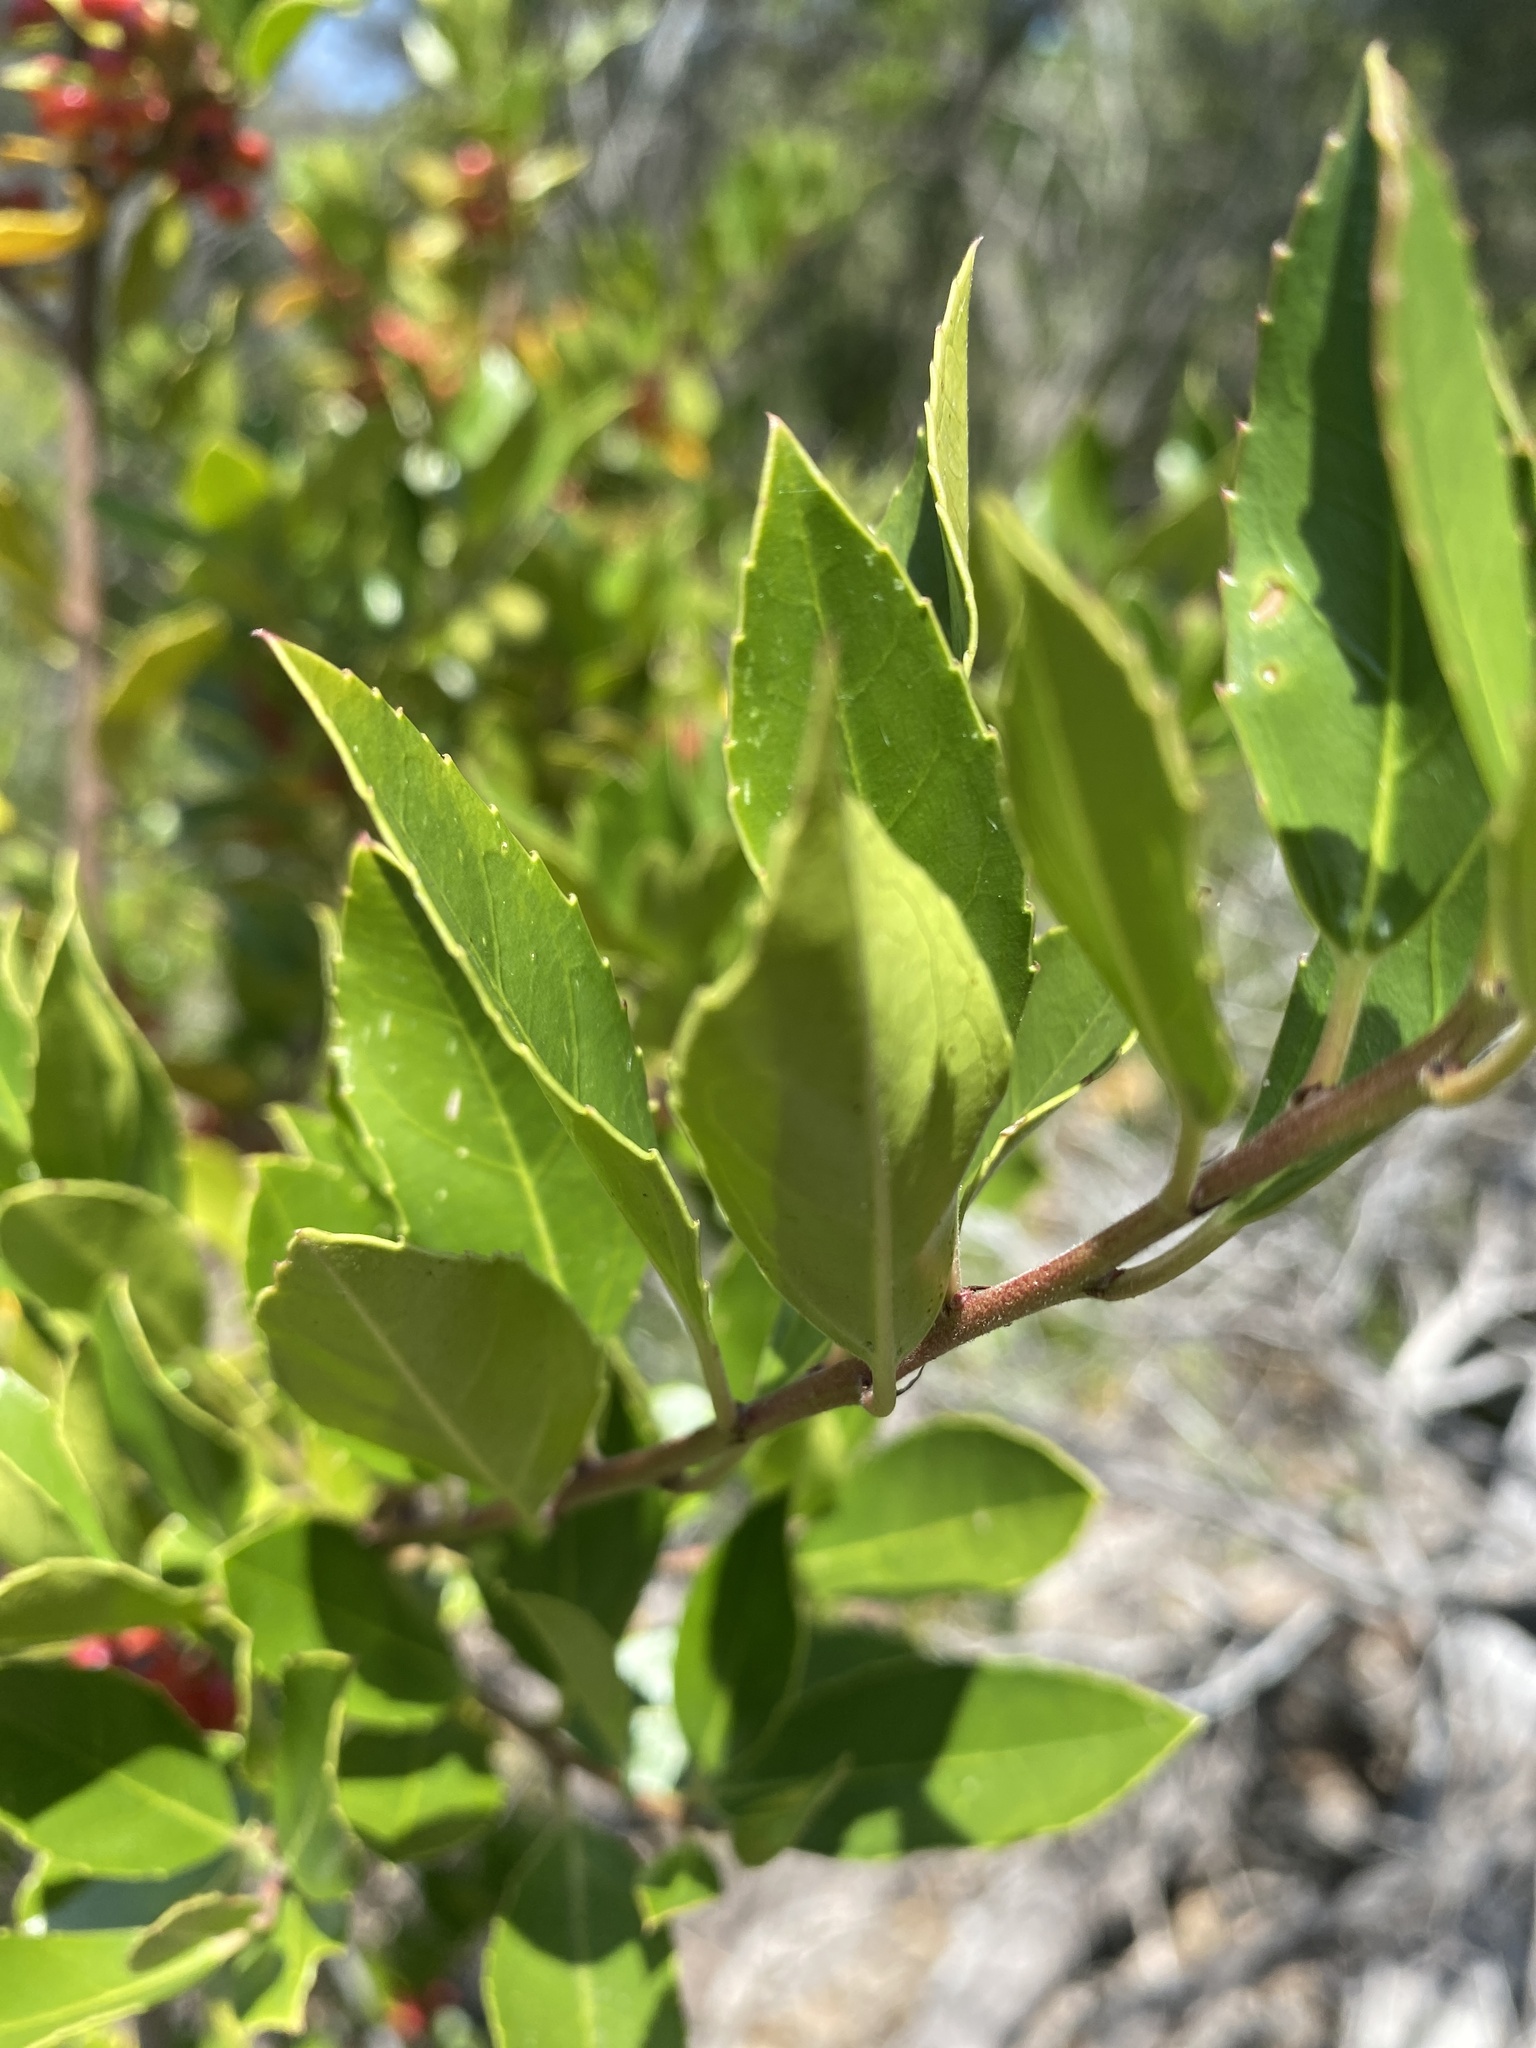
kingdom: Plantae
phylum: Tracheophyta
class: Magnoliopsida
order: Rosales
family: Rhamnaceae
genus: Rhamnus
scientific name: Rhamnus alaternus
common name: Mediterranean buckthorn
